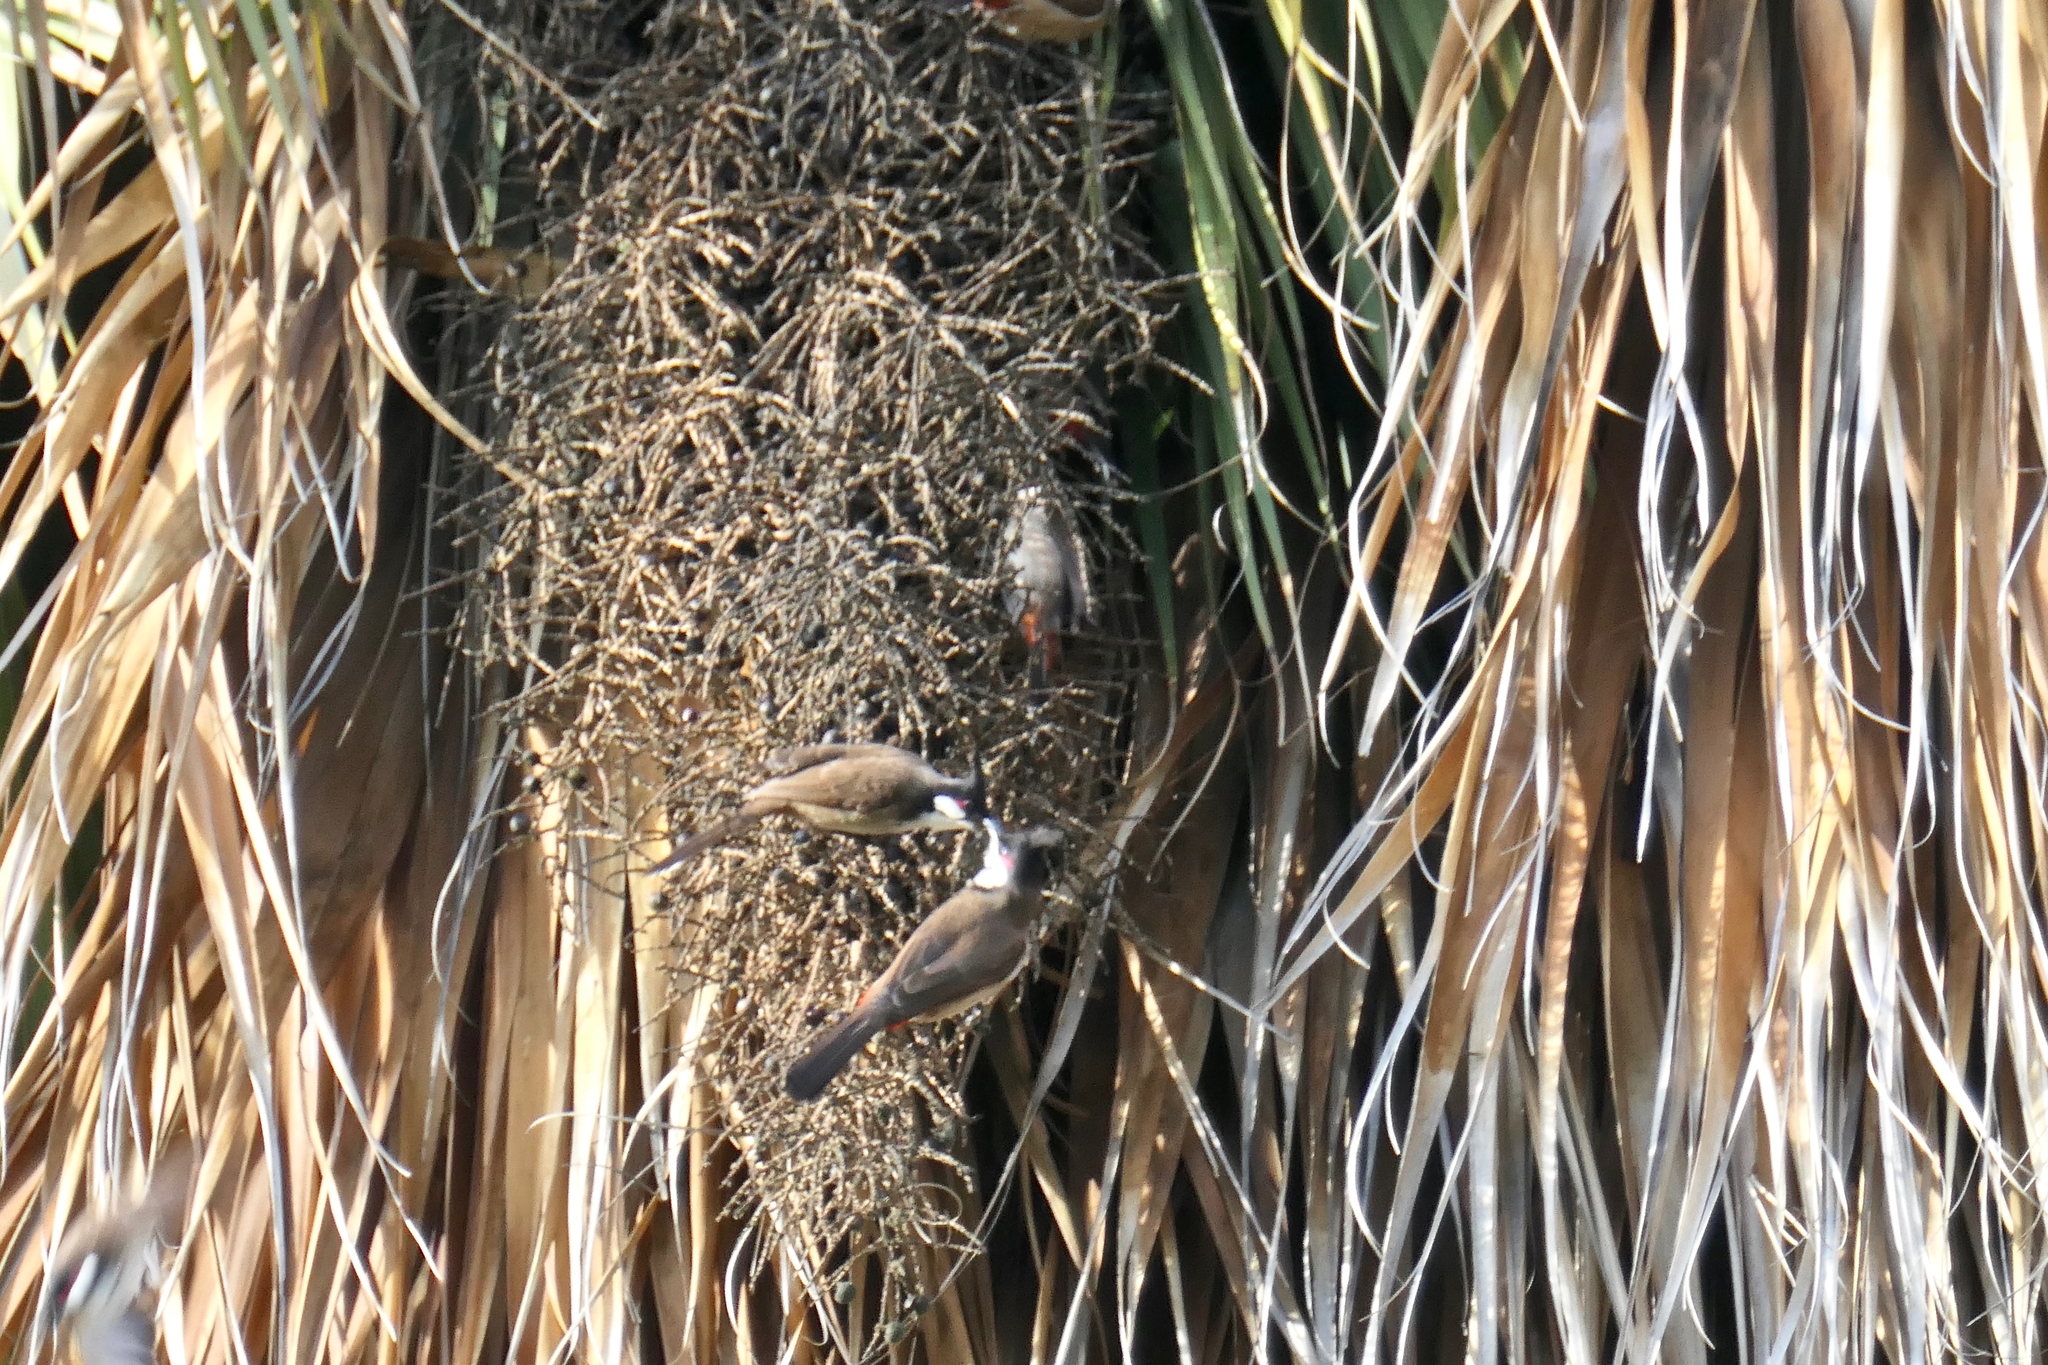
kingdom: Animalia
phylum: Chordata
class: Aves
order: Passeriformes
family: Pycnonotidae
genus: Pycnonotus
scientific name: Pycnonotus jocosus
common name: Red-whiskered bulbul
